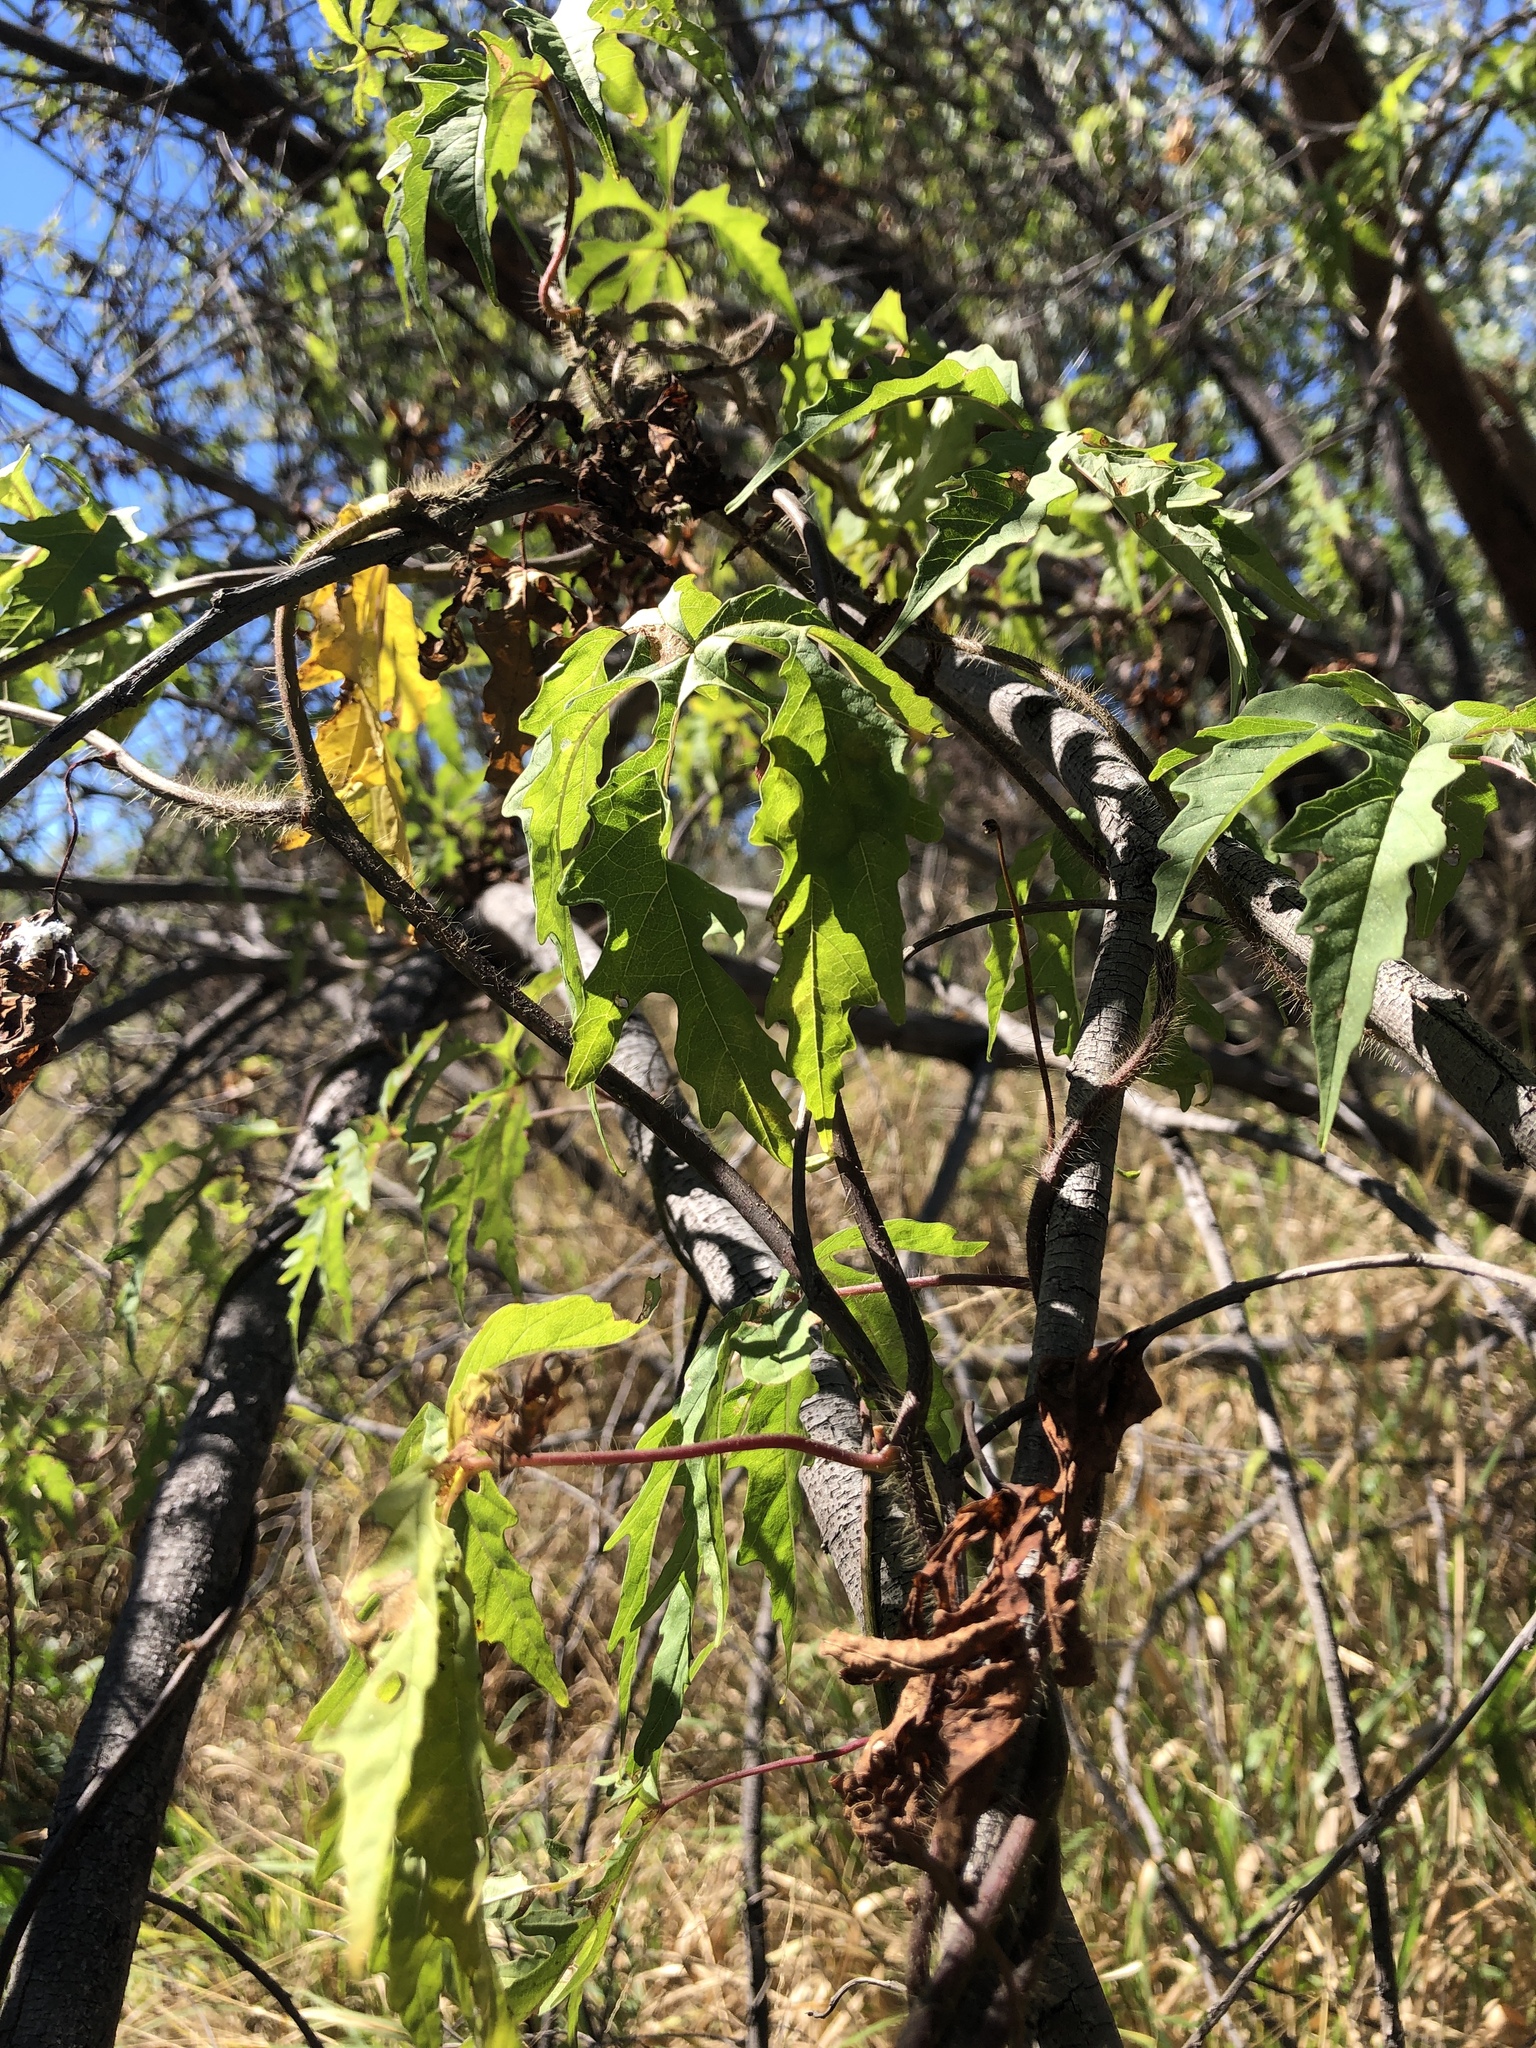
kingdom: Plantae
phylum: Tracheophyta
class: Magnoliopsida
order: Solanales
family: Convolvulaceae
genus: Distimake
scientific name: Distimake dissectus
